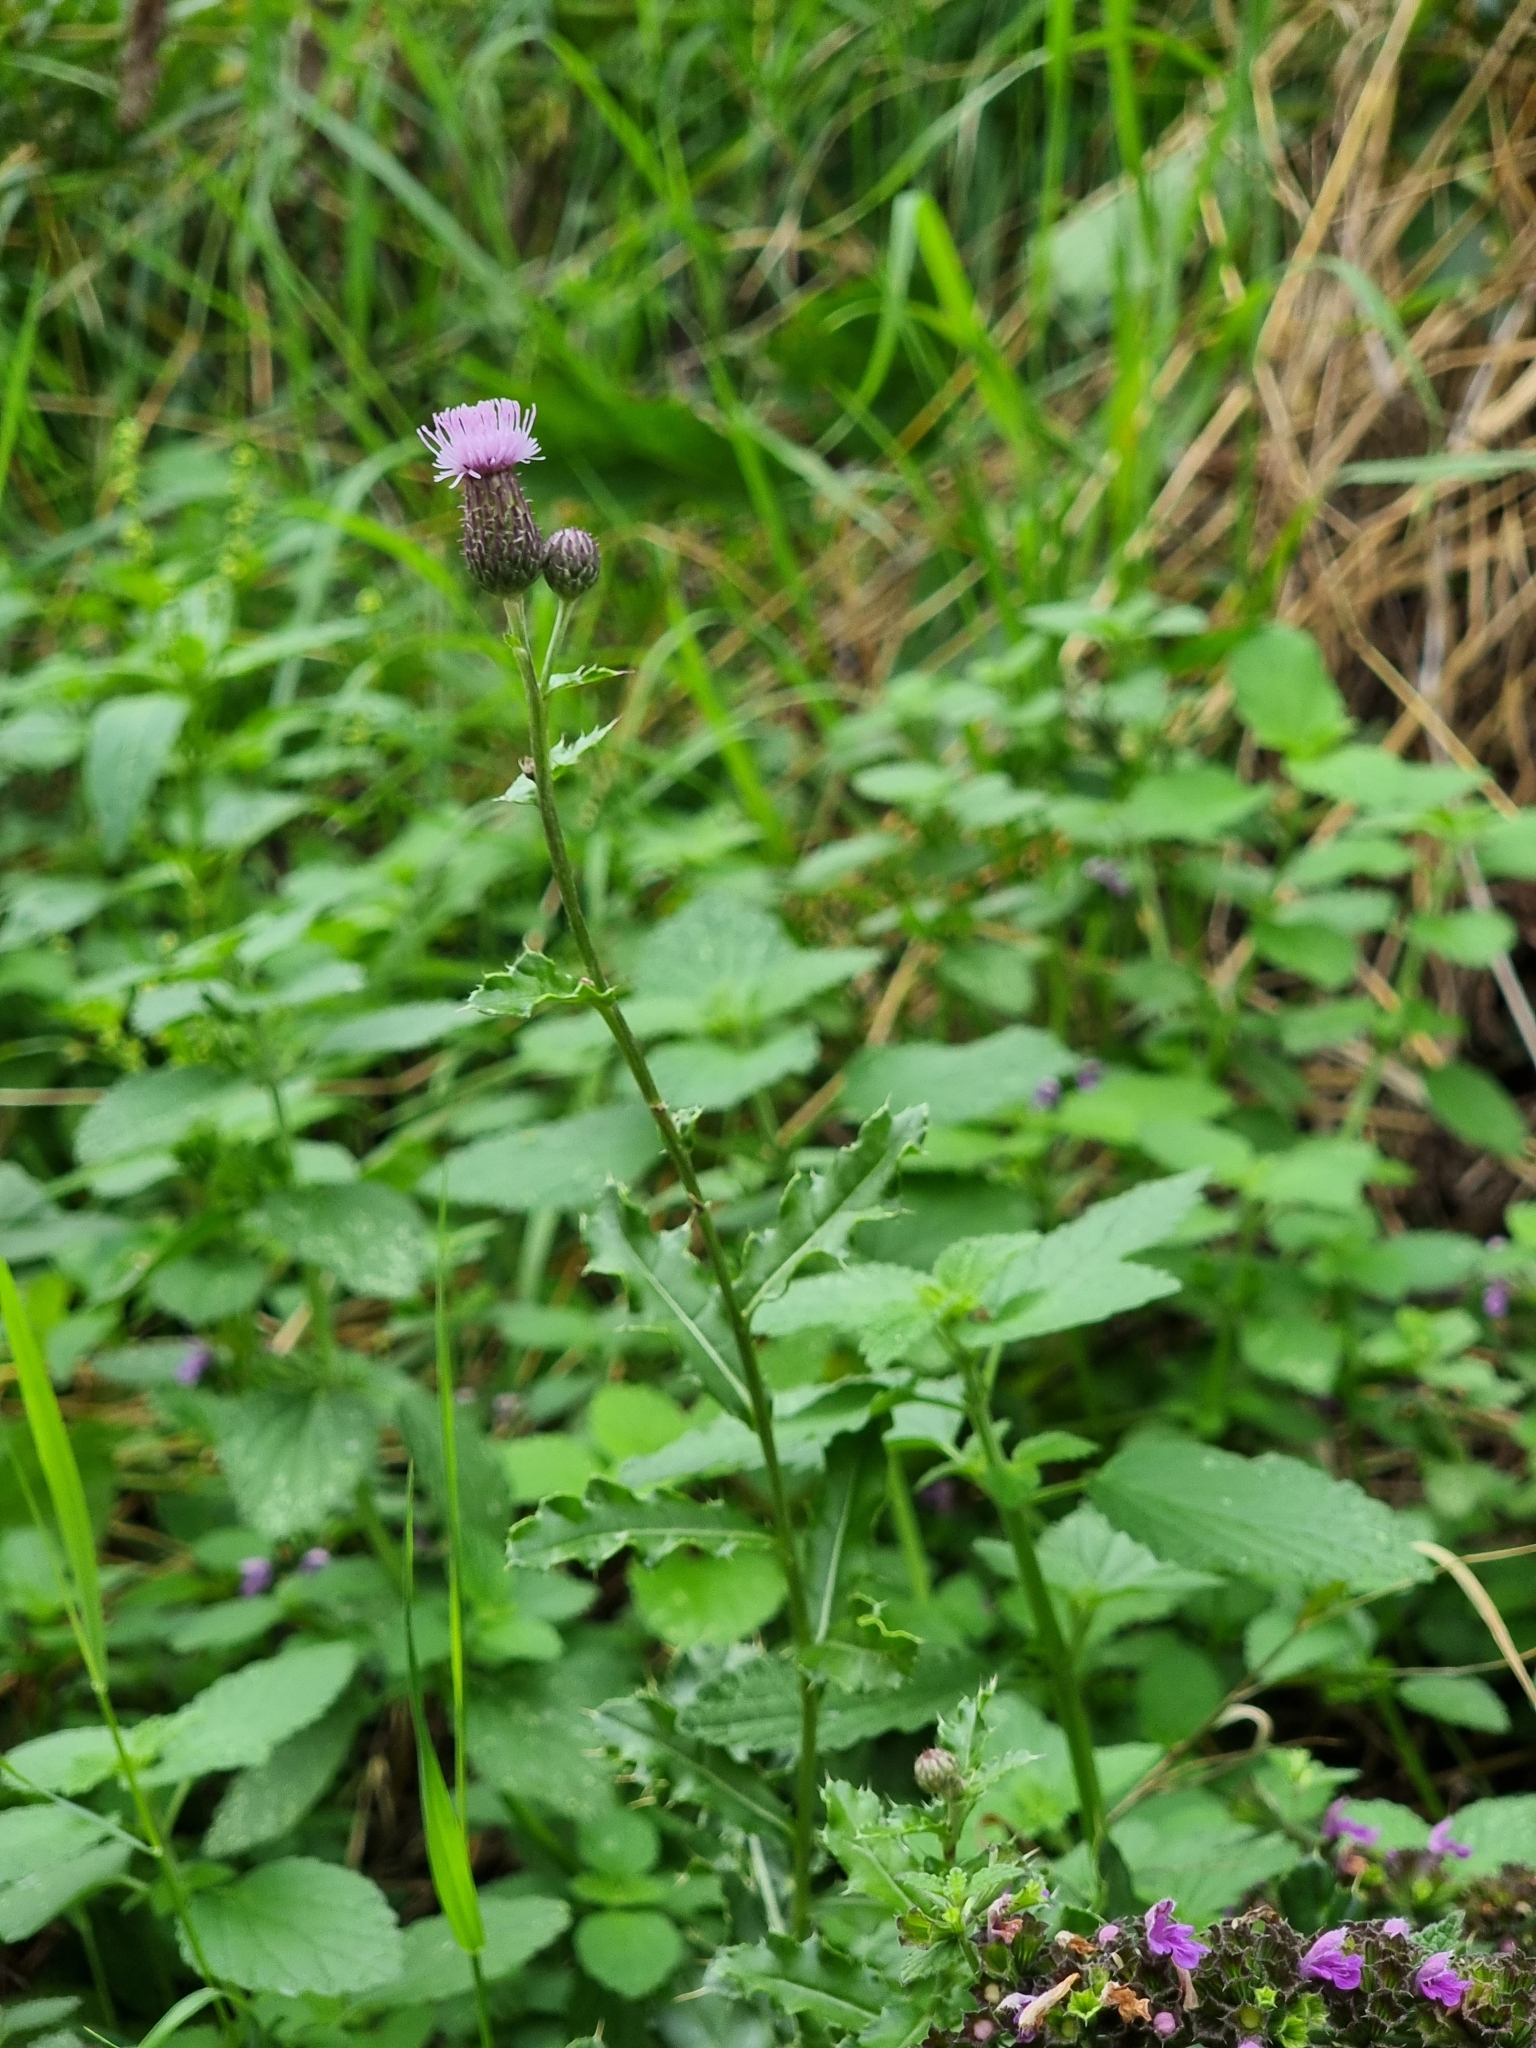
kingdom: Plantae
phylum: Tracheophyta
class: Magnoliopsida
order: Asterales
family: Asteraceae
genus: Cirsium
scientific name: Cirsium arvense
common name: Creeping thistle
